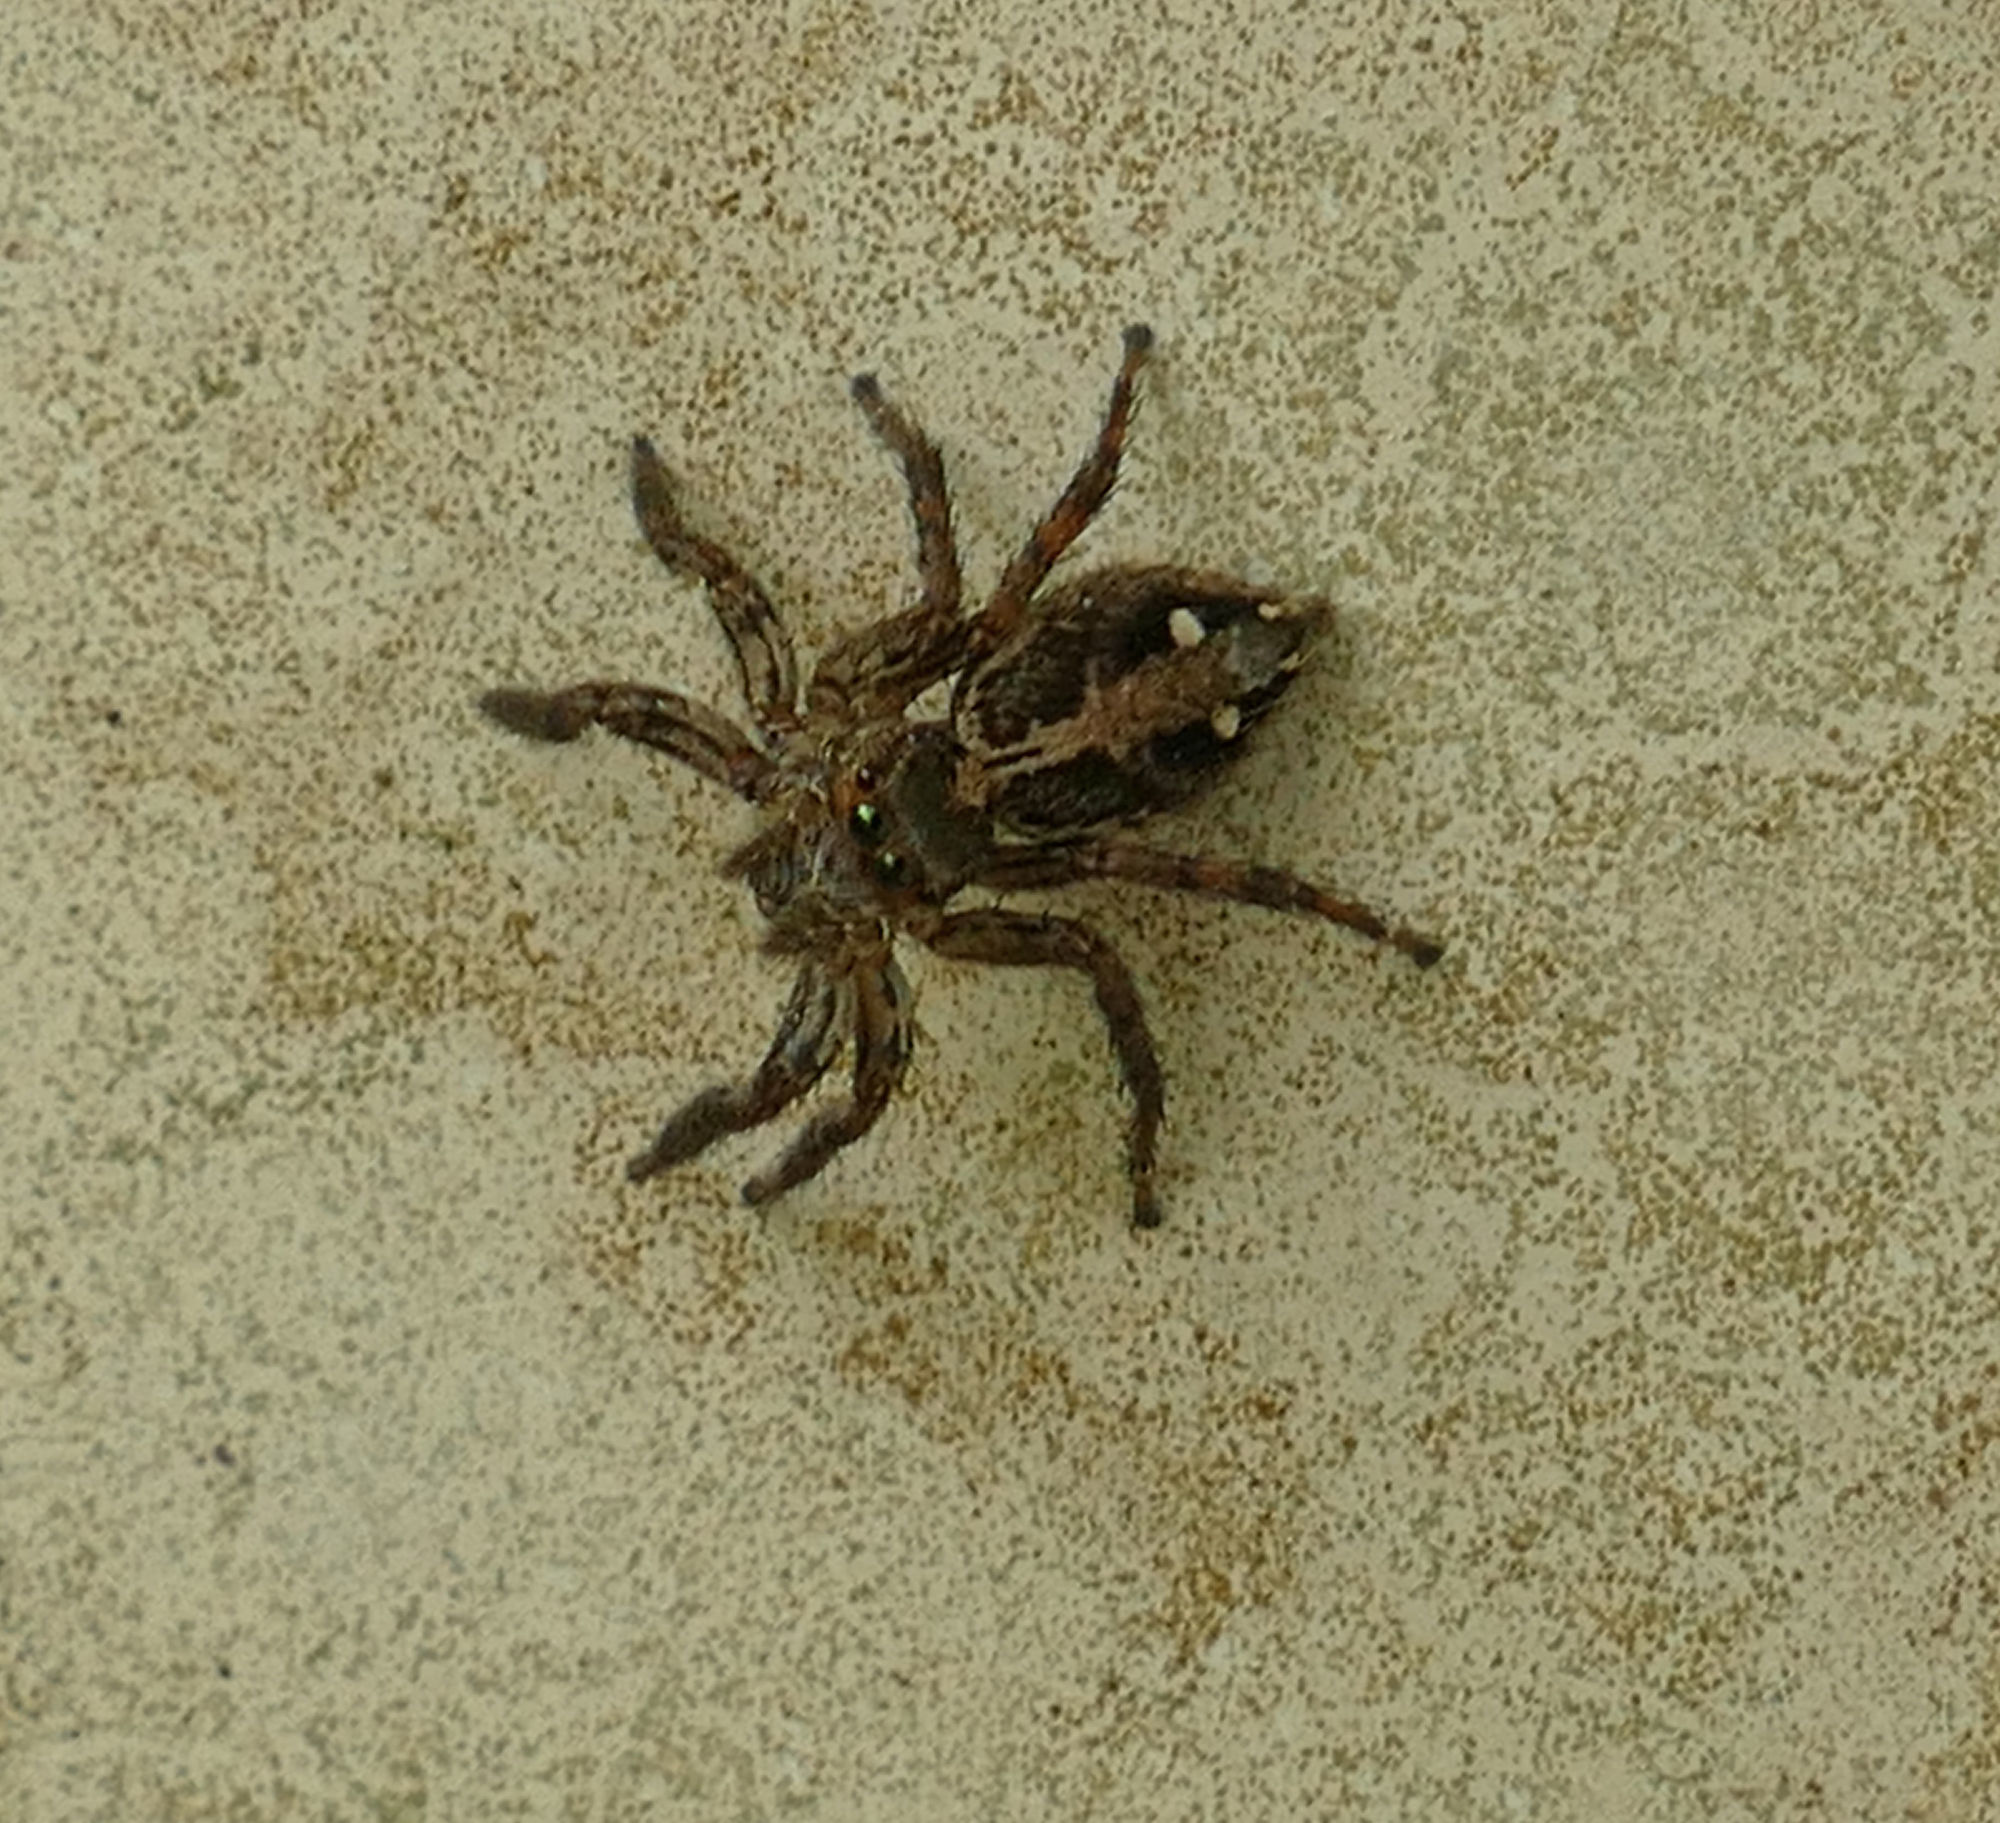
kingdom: Animalia
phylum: Arthropoda
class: Arachnida
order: Araneae
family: Salticidae
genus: Plexippus
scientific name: Plexippus paykulli
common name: Pantropical jumper
